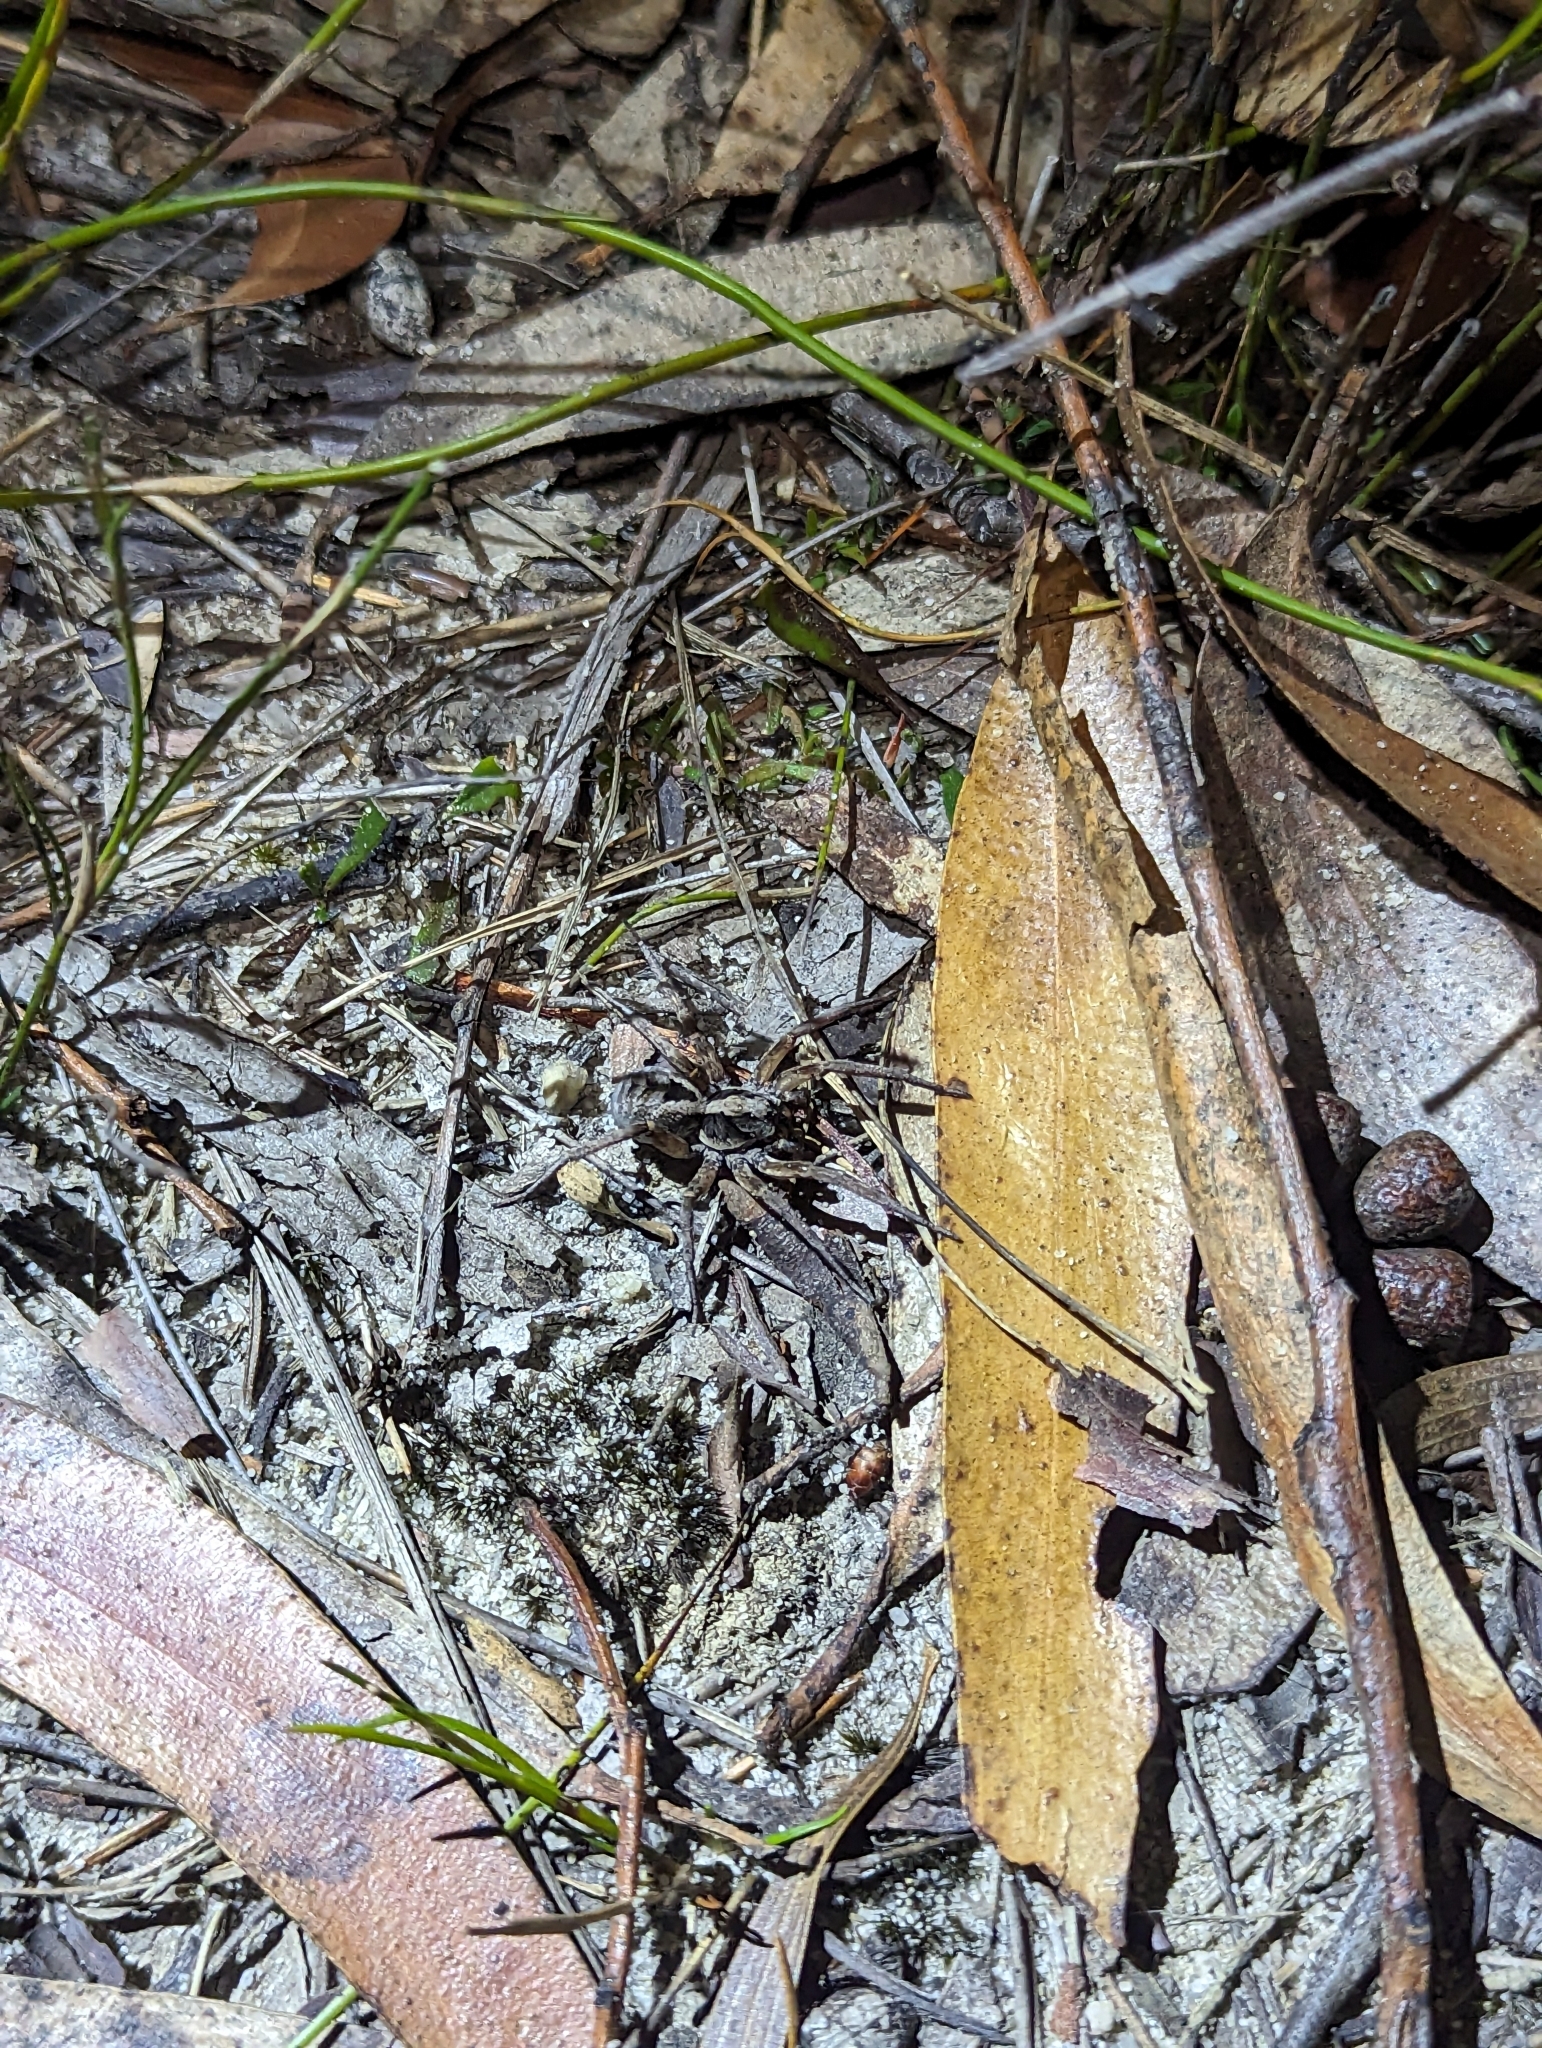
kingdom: Animalia
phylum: Arthropoda
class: Arachnida
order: Araneae
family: Lycosidae
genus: Venator
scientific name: Venator spenceri
